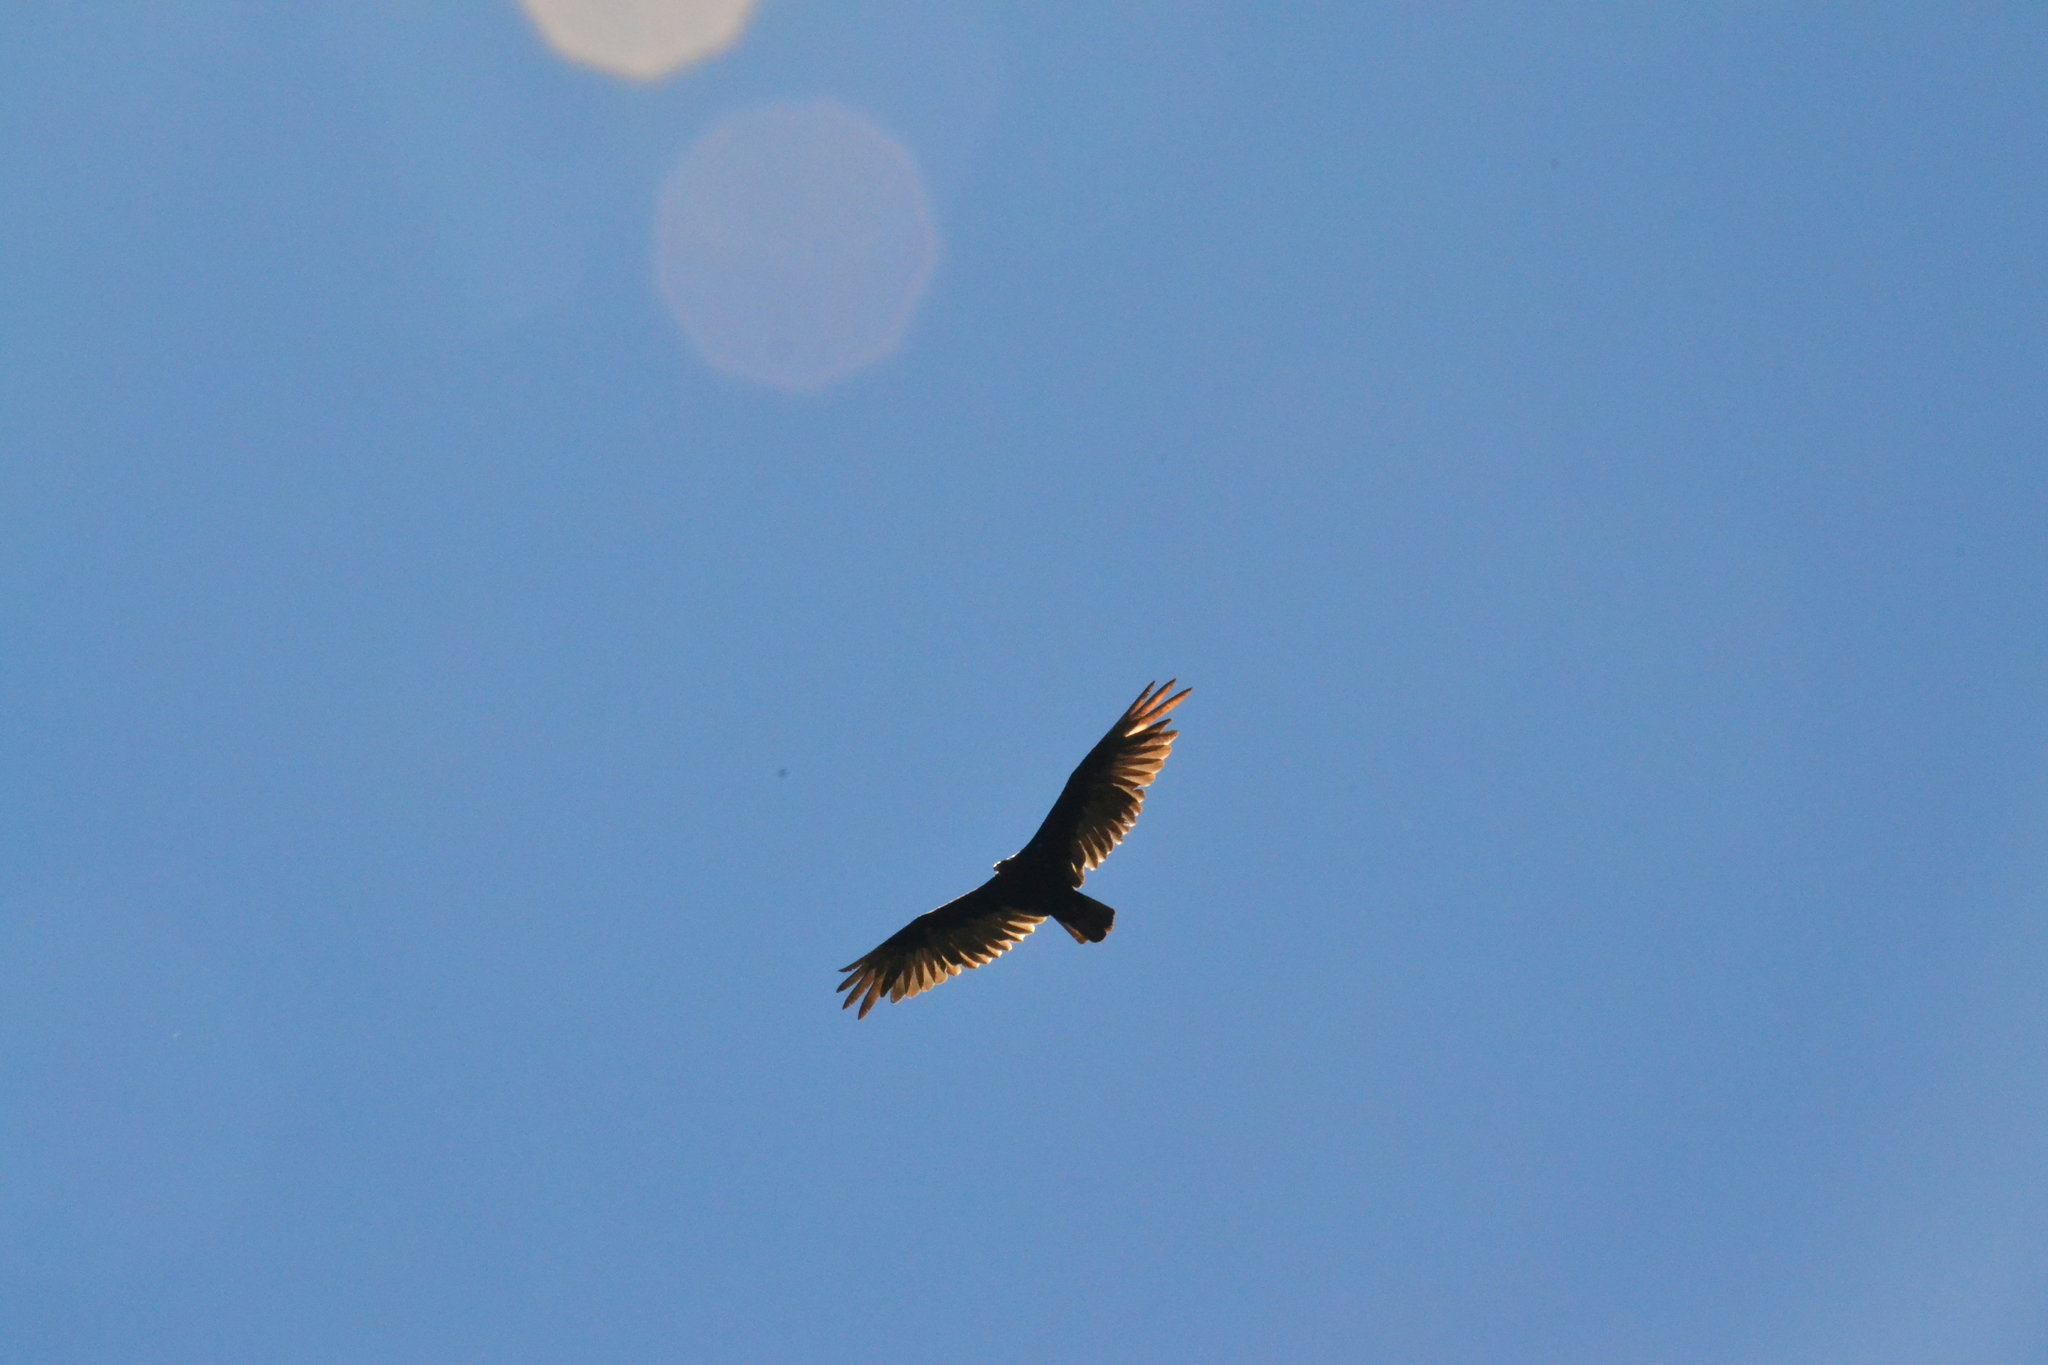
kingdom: Animalia
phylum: Chordata
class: Aves
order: Accipitriformes
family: Cathartidae
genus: Cathartes
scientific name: Cathartes aura
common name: Turkey vulture
